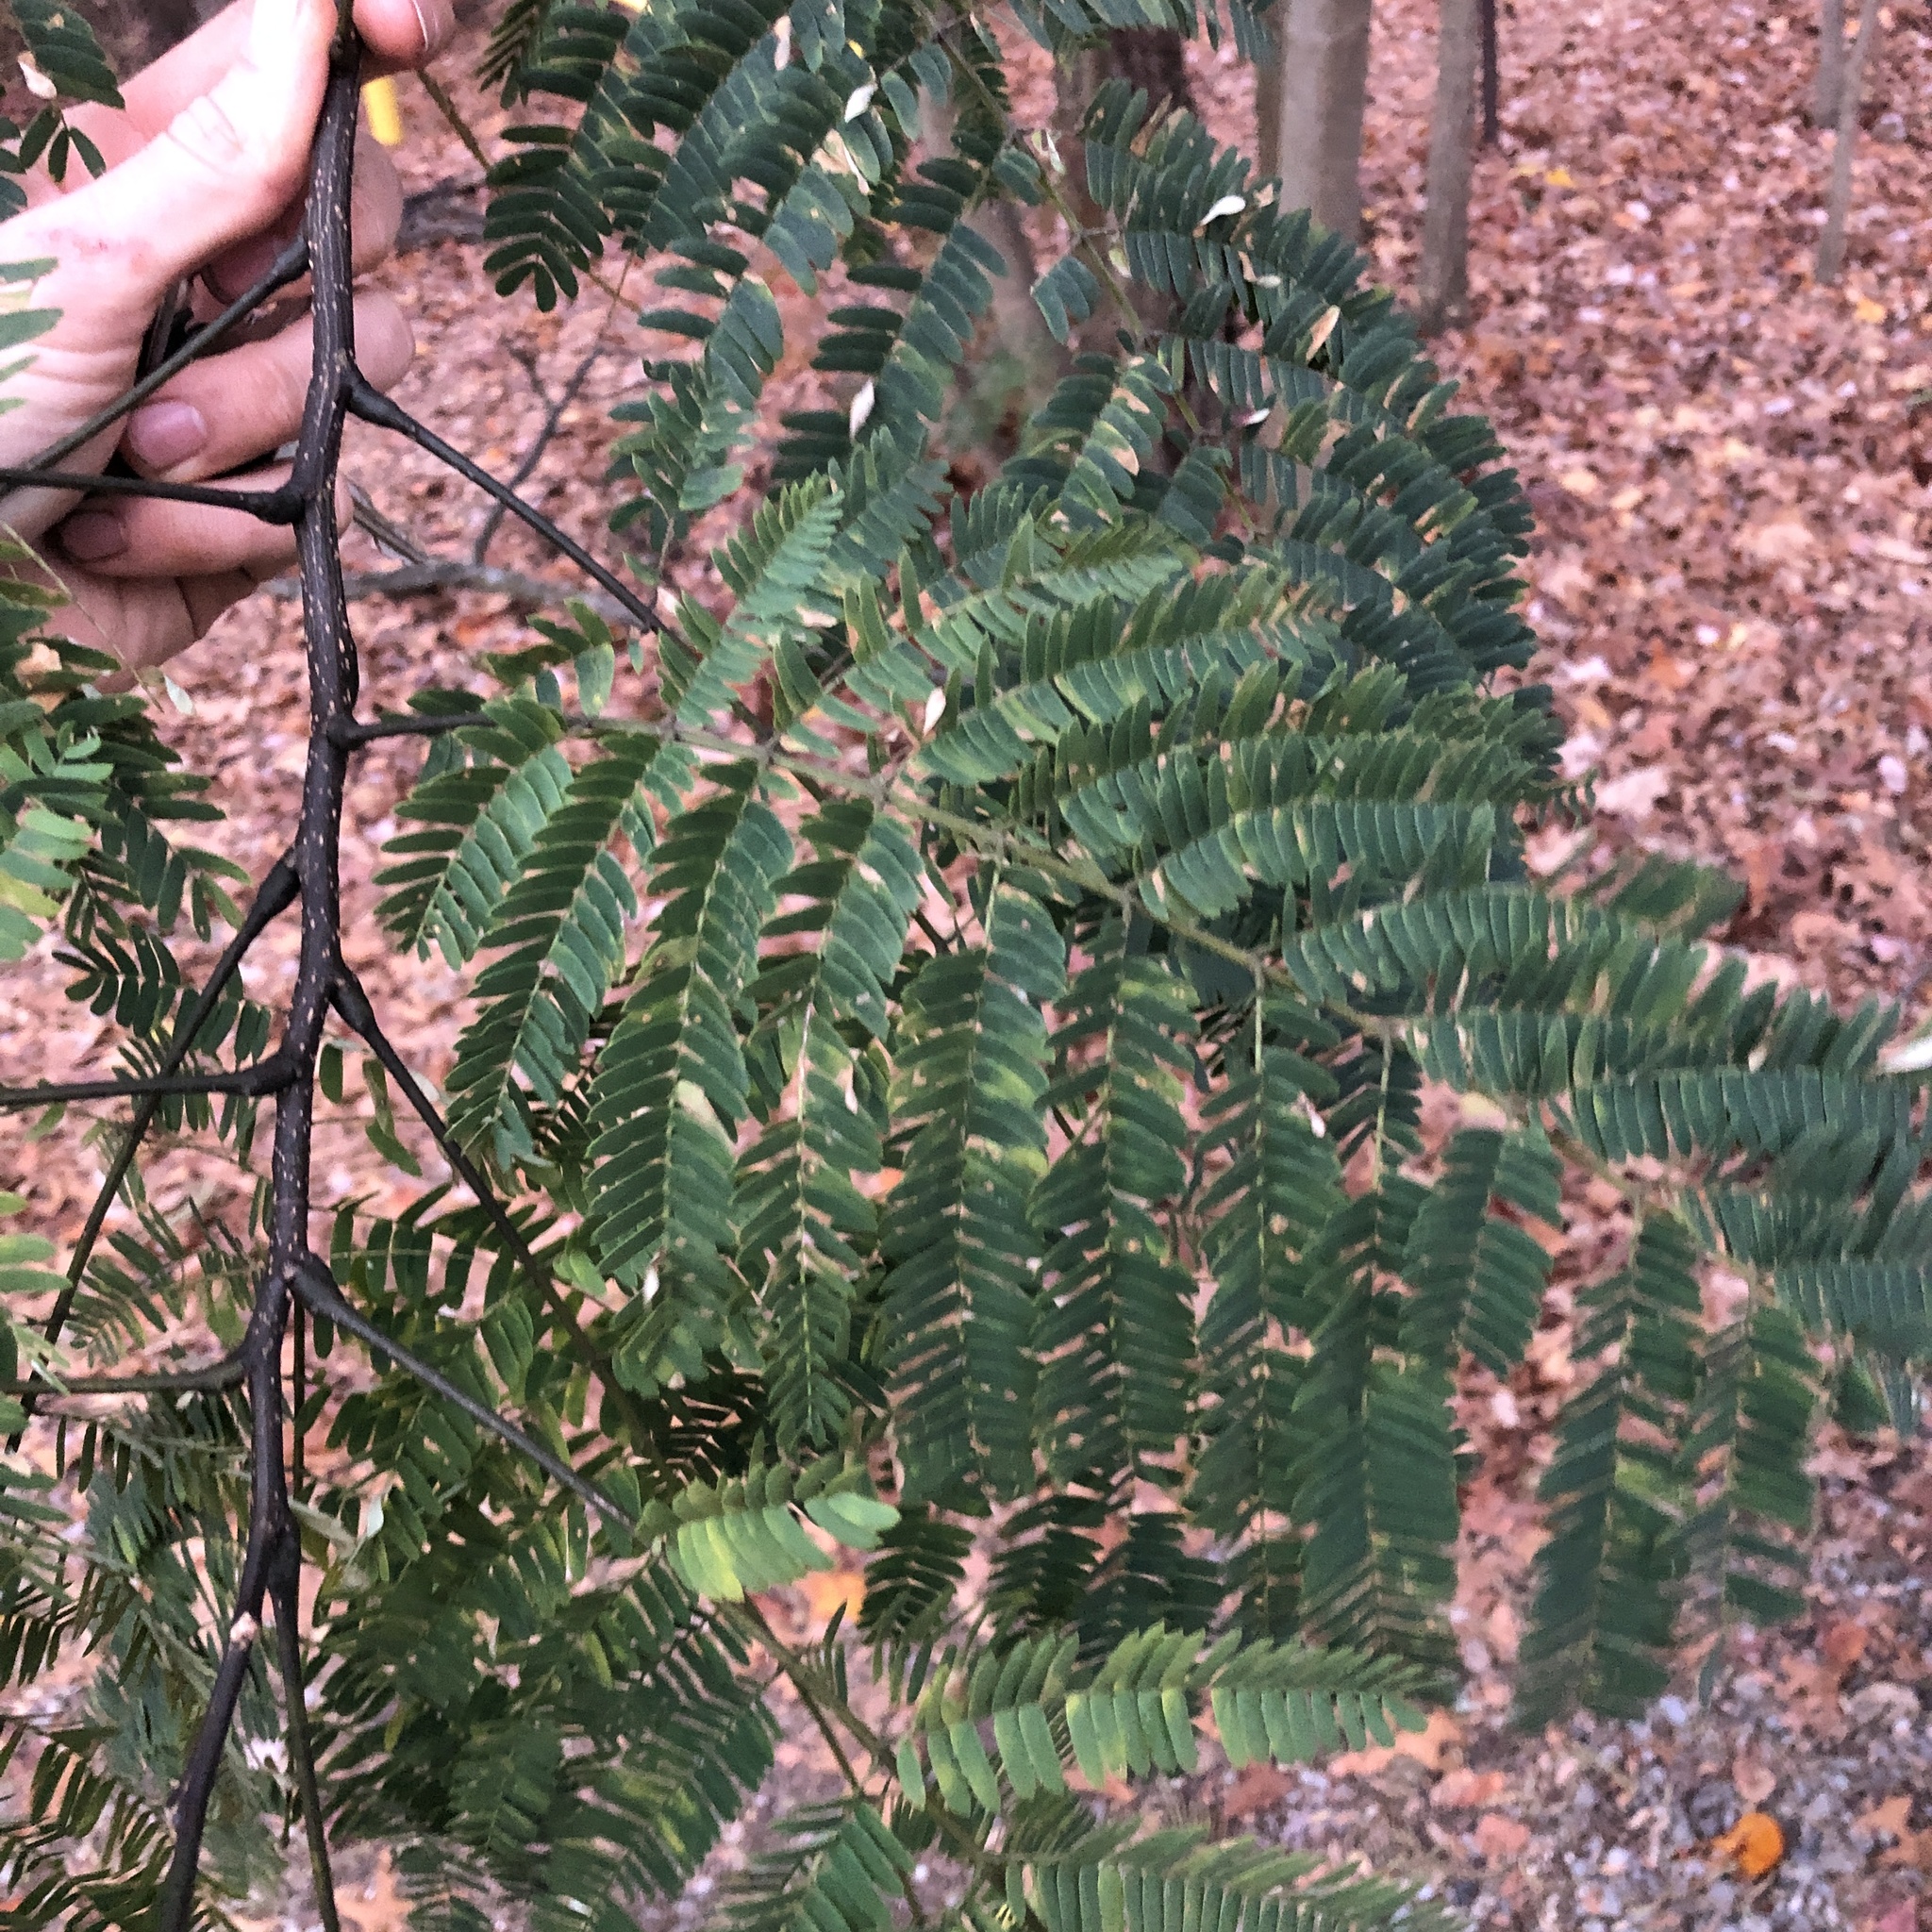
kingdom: Plantae
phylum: Tracheophyta
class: Magnoliopsida
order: Fabales
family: Fabaceae
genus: Albizia
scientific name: Albizia julibrissin
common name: Silktree
